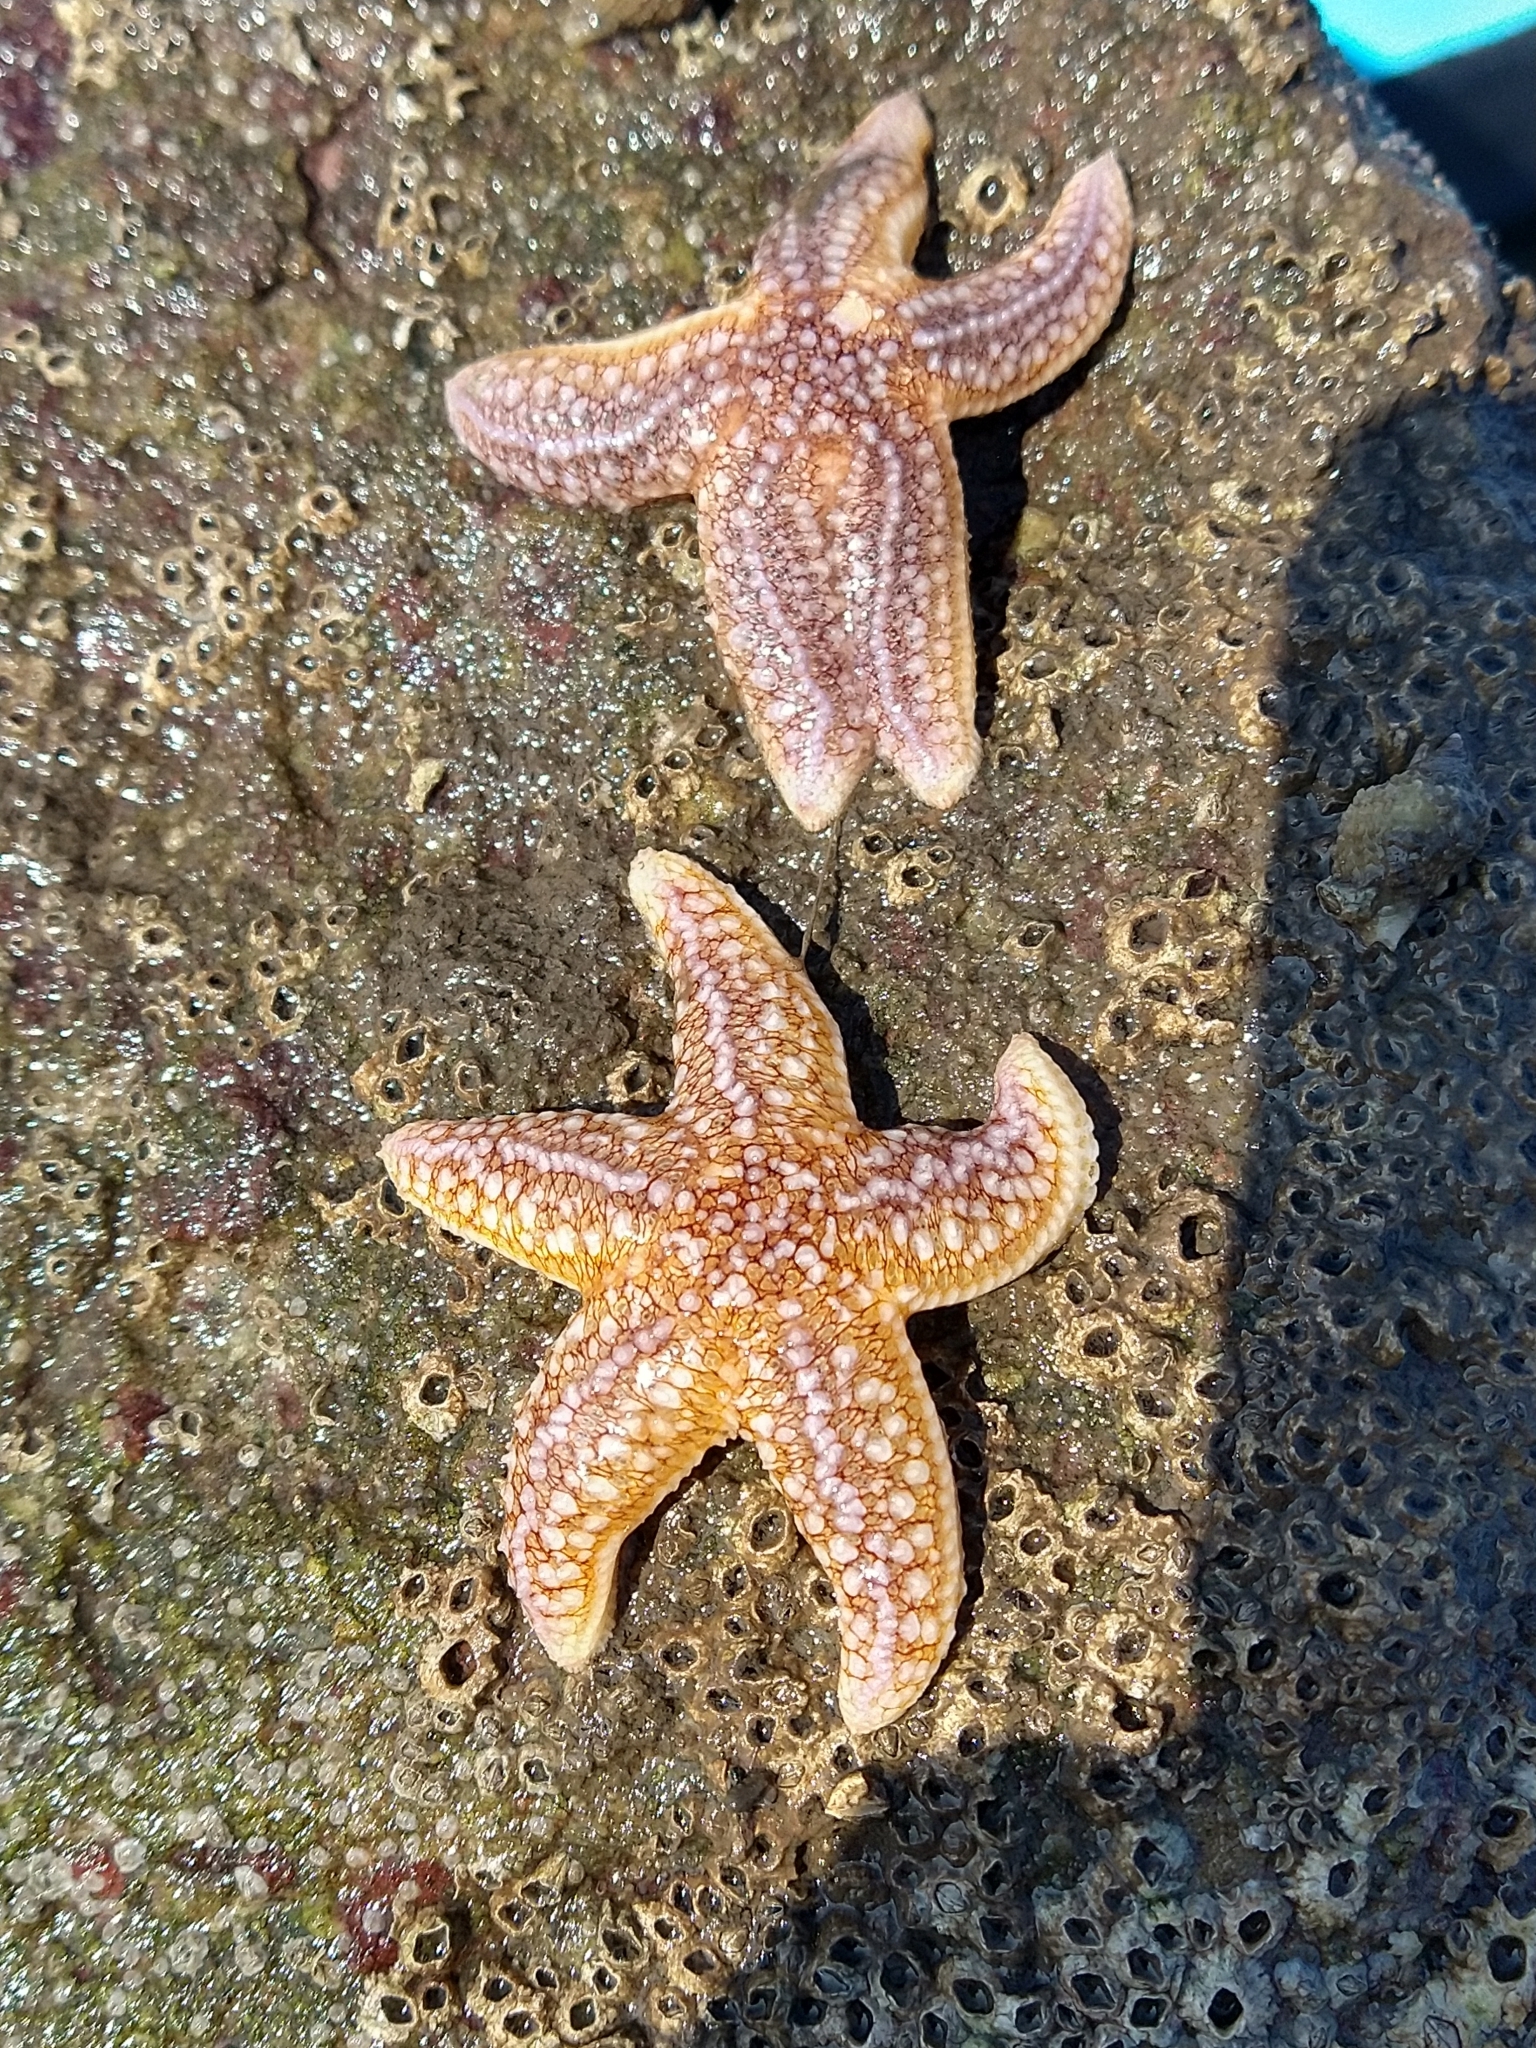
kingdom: Animalia
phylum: Echinodermata
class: Asteroidea
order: Forcipulatida
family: Asteriidae
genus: Asterias
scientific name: Asterias rubens
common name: Common starfish
